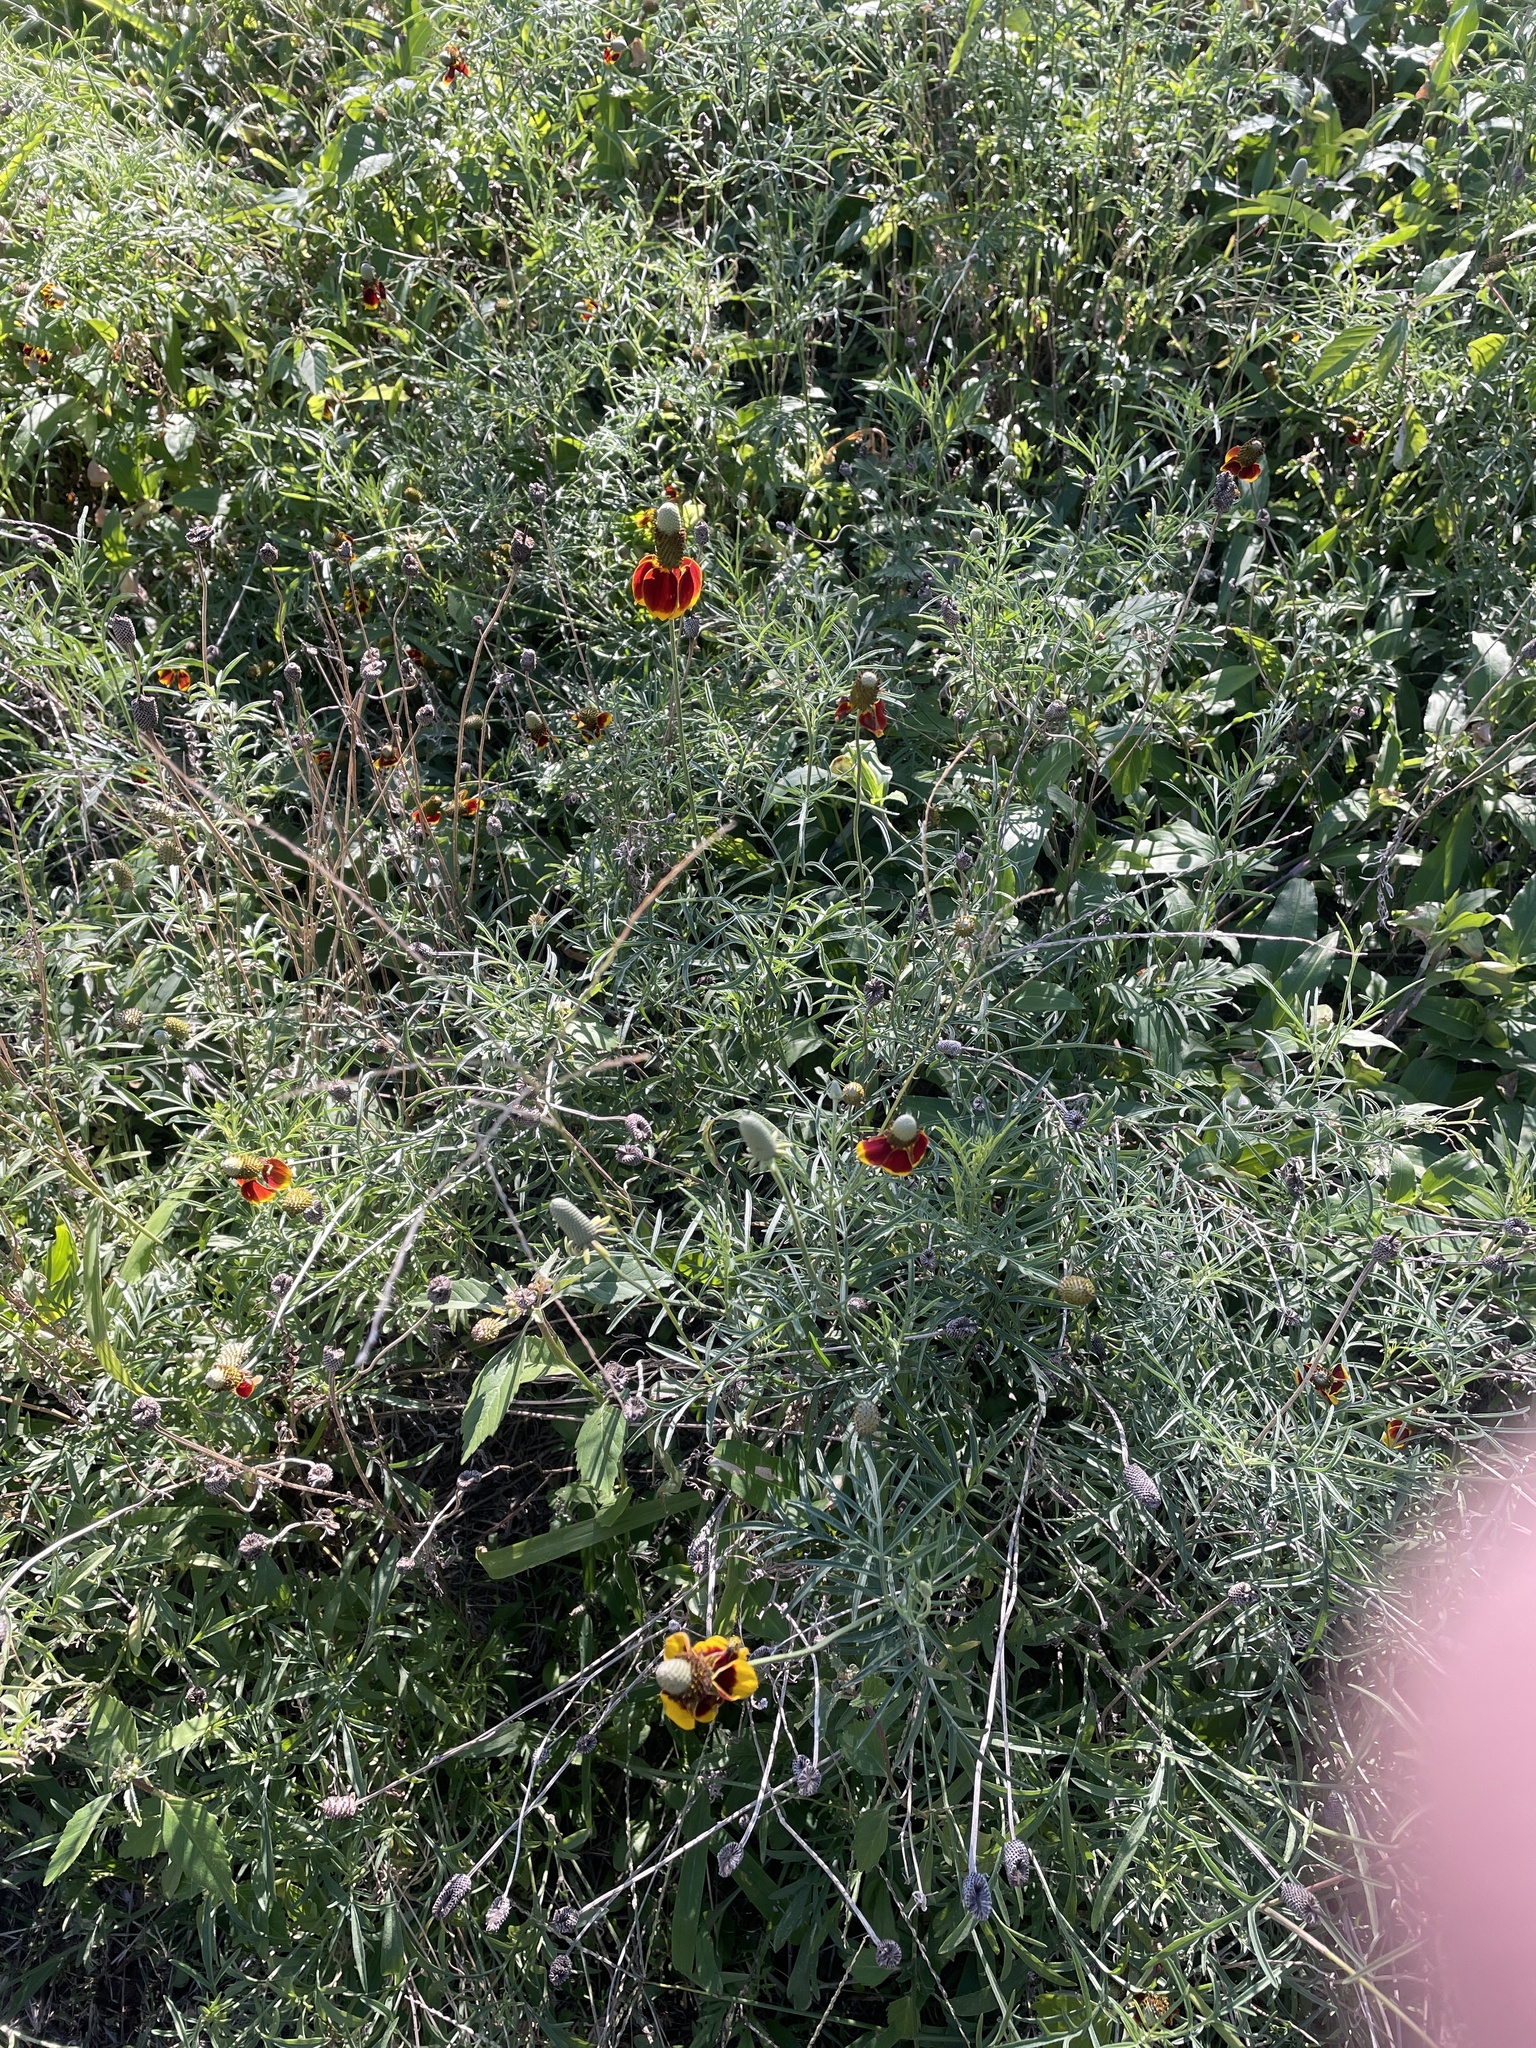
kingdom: Plantae
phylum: Tracheophyta
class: Magnoliopsida
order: Asterales
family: Asteraceae
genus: Ratibida
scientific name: Ratibida columnifera
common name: Prairie coneflower
